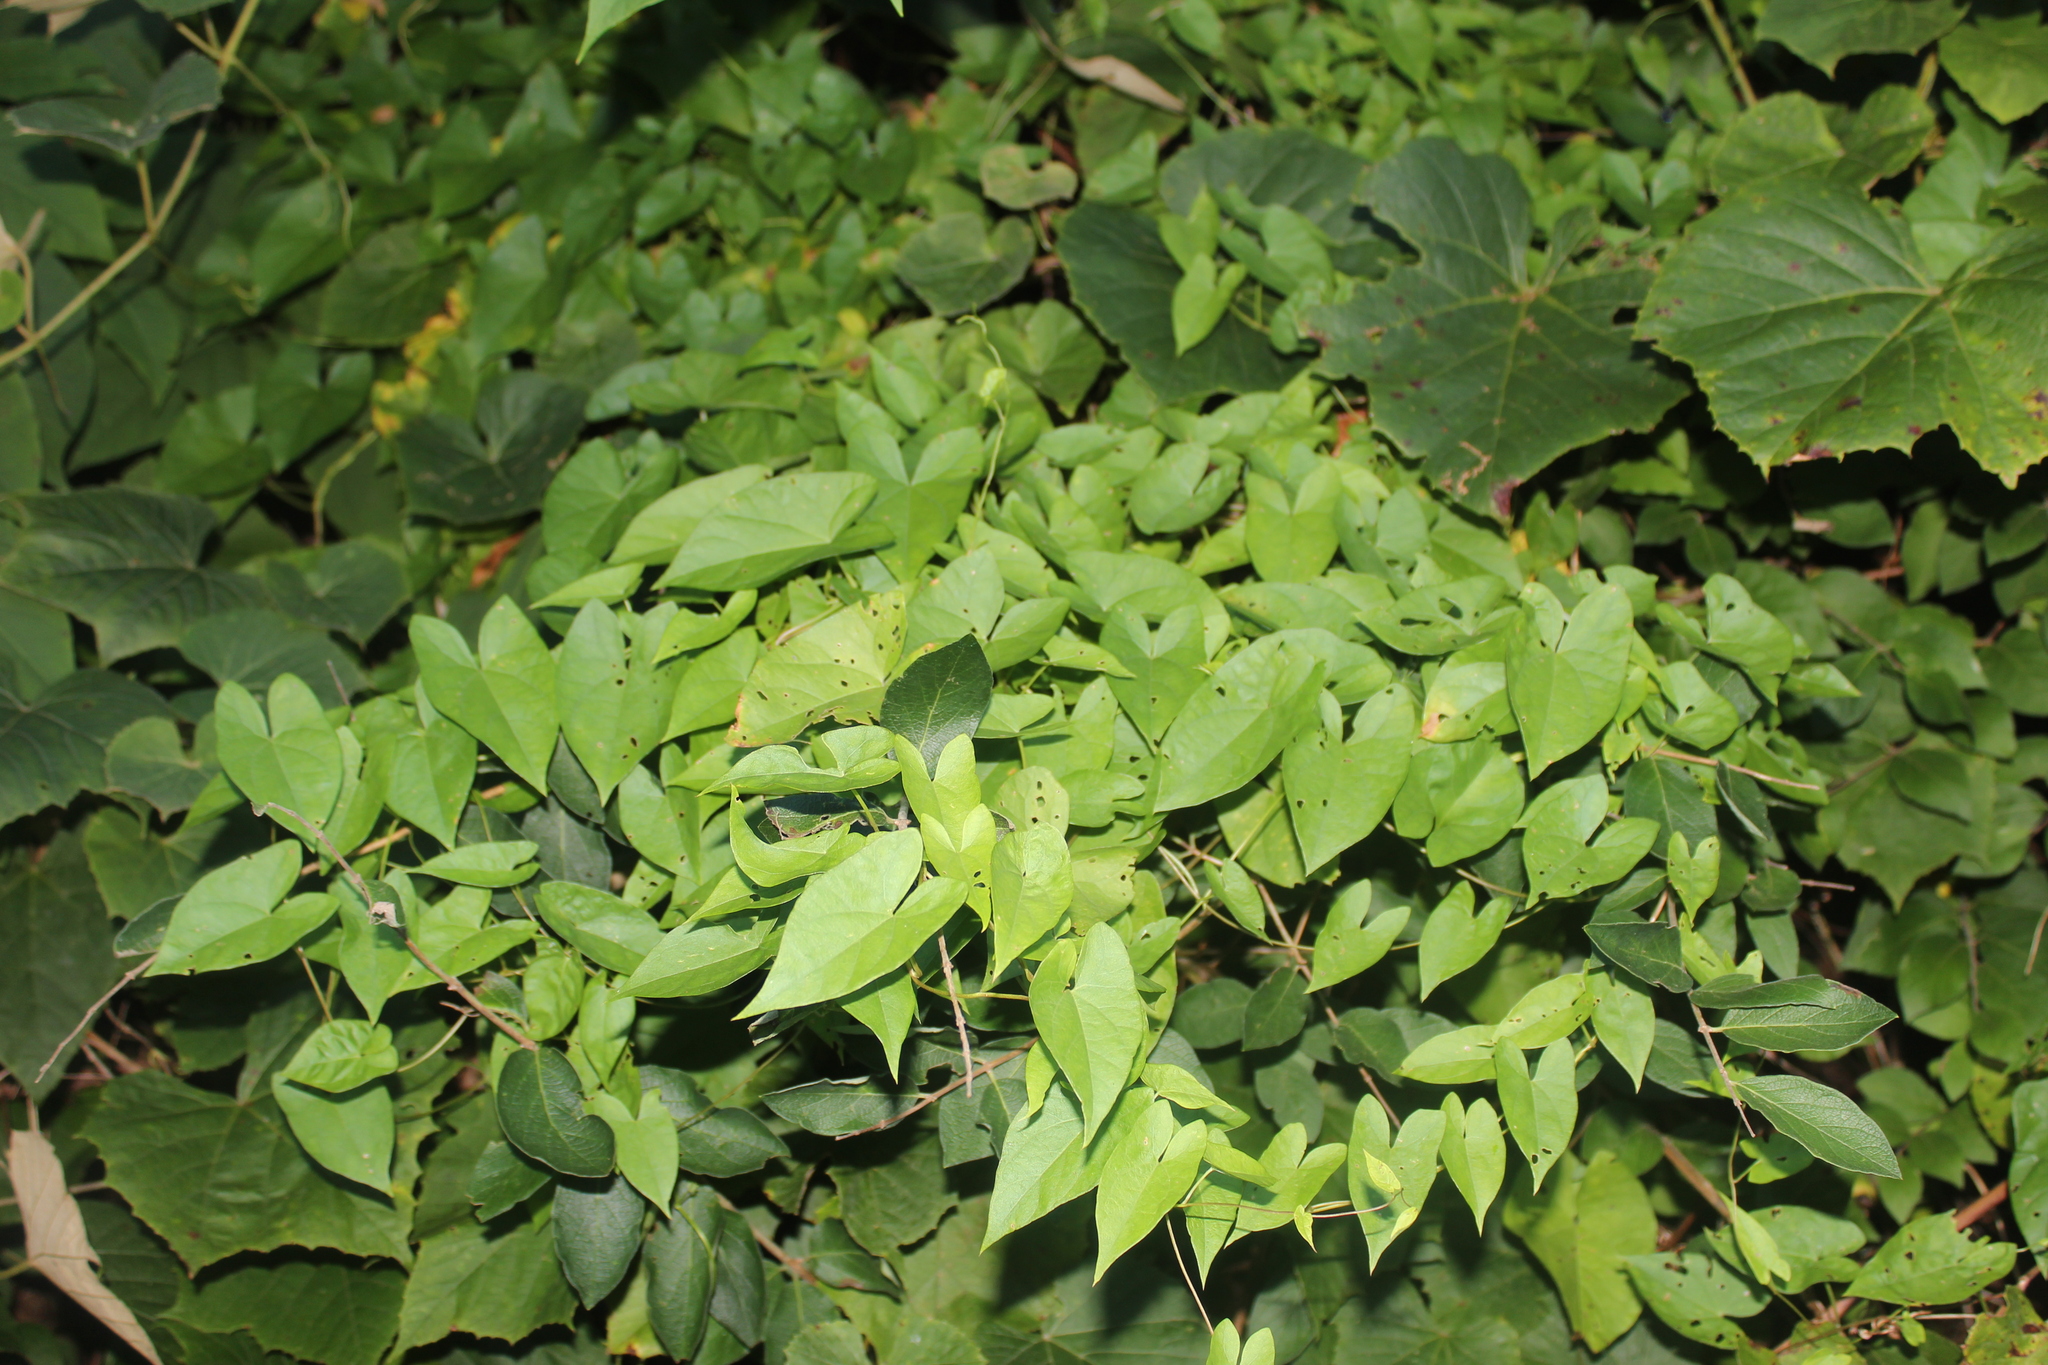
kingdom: Plantae
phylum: Tracheophyta
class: Magnoliopsida
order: Solanales
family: Convolvulaceae
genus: Calystegia
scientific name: Calystegia sepium
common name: Hedge bindweed
